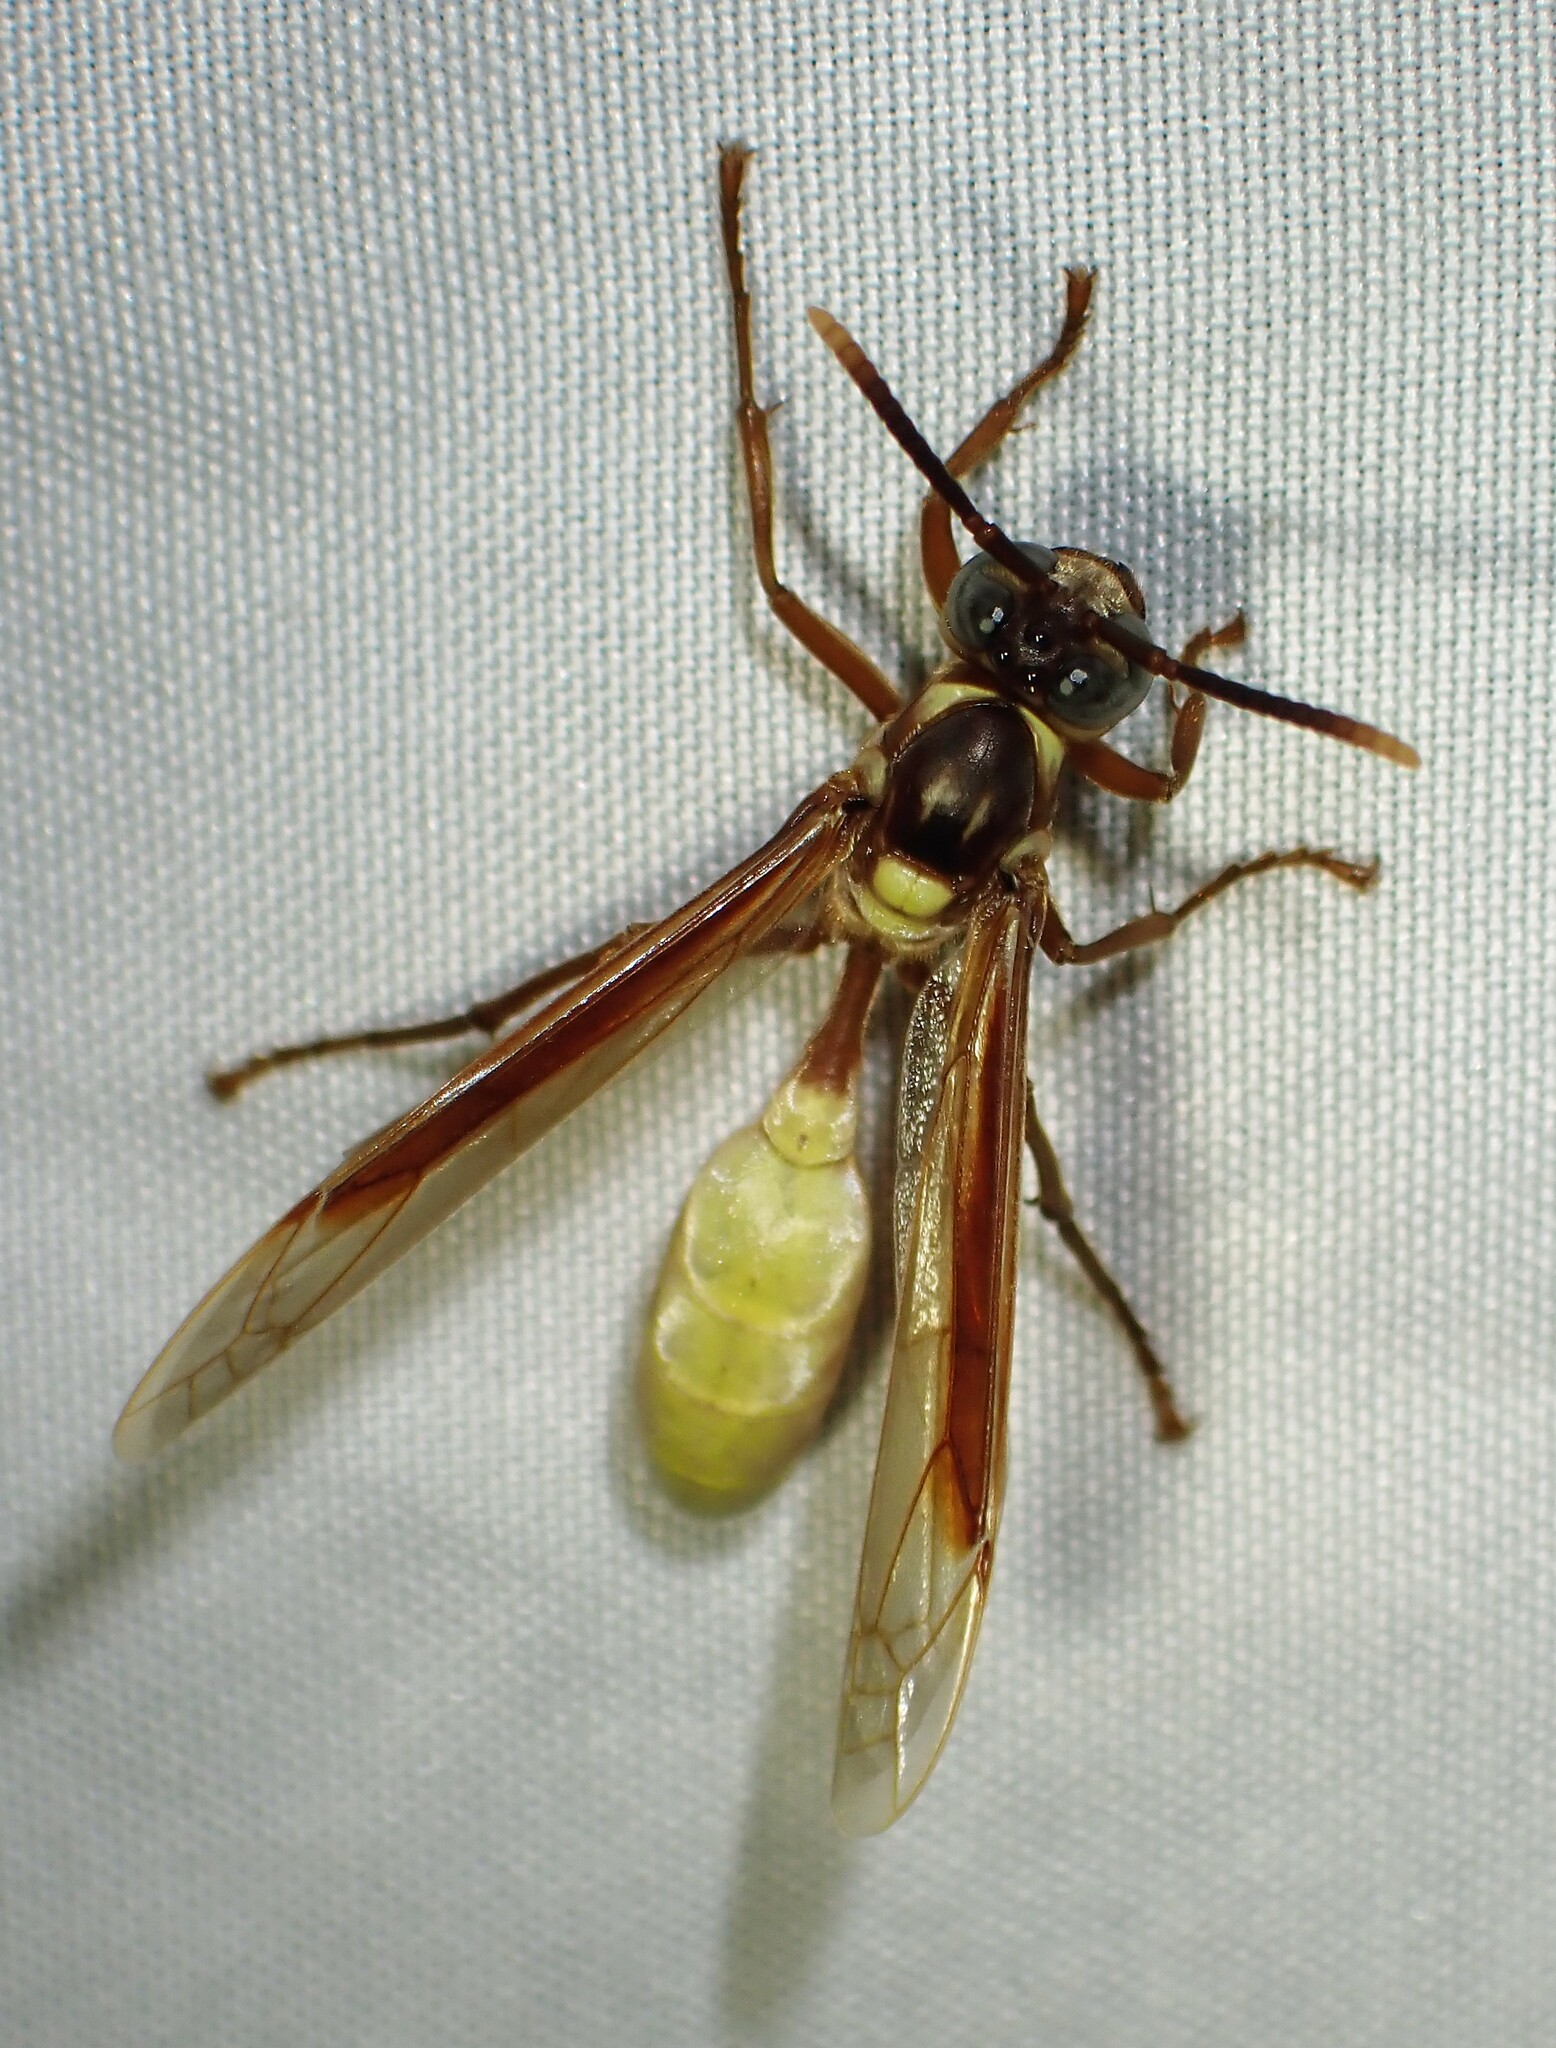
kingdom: Animalia
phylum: Arthropoda
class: Insecta
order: Hymenoptera
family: Vespidae
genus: Apoica
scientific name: Apoica pallens
